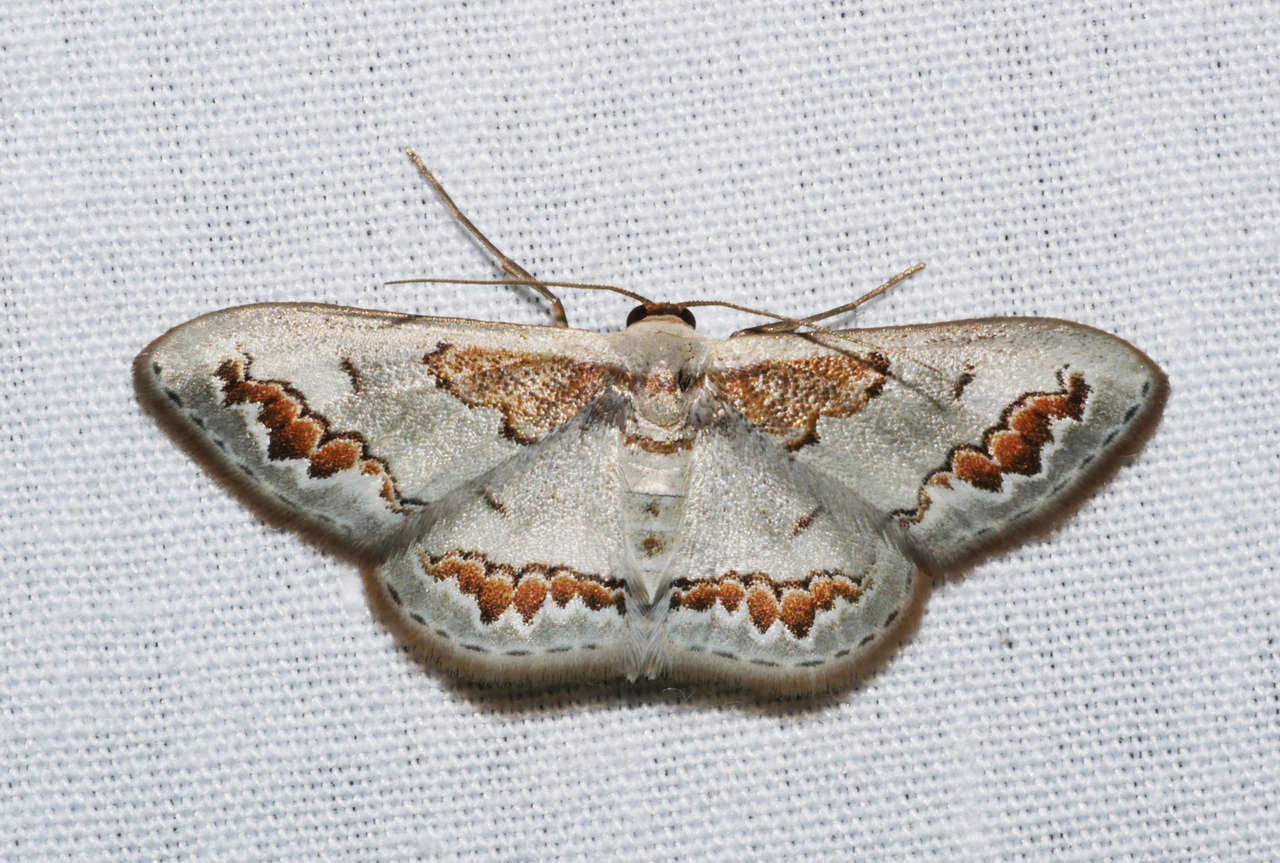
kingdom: Animalia
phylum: Arthropoda
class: Insecta
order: Lepidoptera
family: Geometridae
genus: Dithalama
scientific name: Dithalama cosmospila
